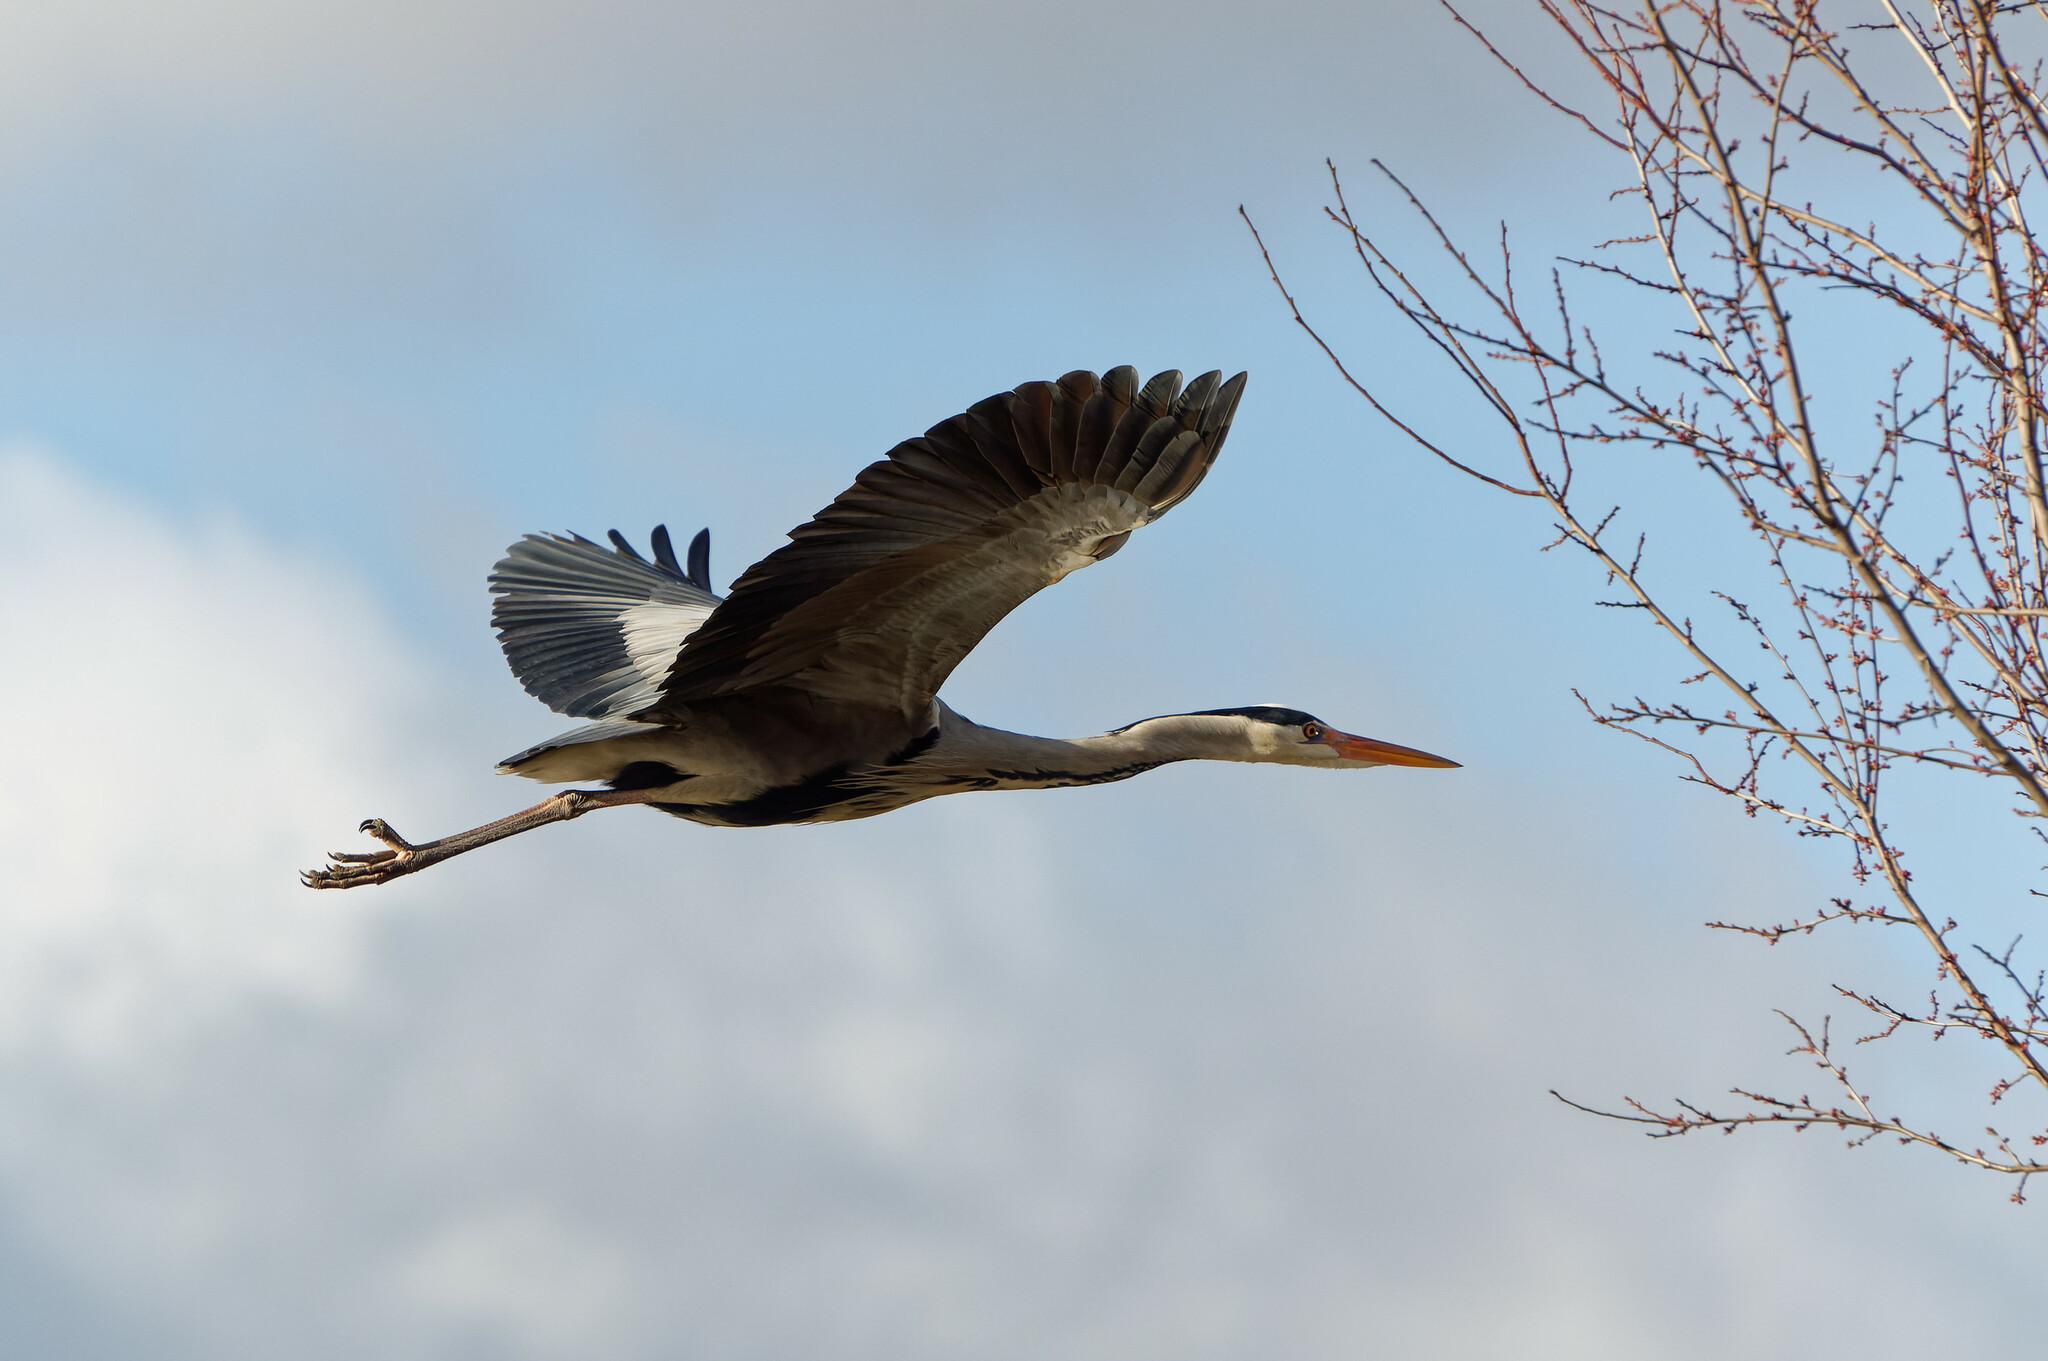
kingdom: Animalia
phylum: Chordata
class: Aves
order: Pelecaniformes
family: Ardeidae
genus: Ardea
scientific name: Ardea cinerea
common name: Grey heron
